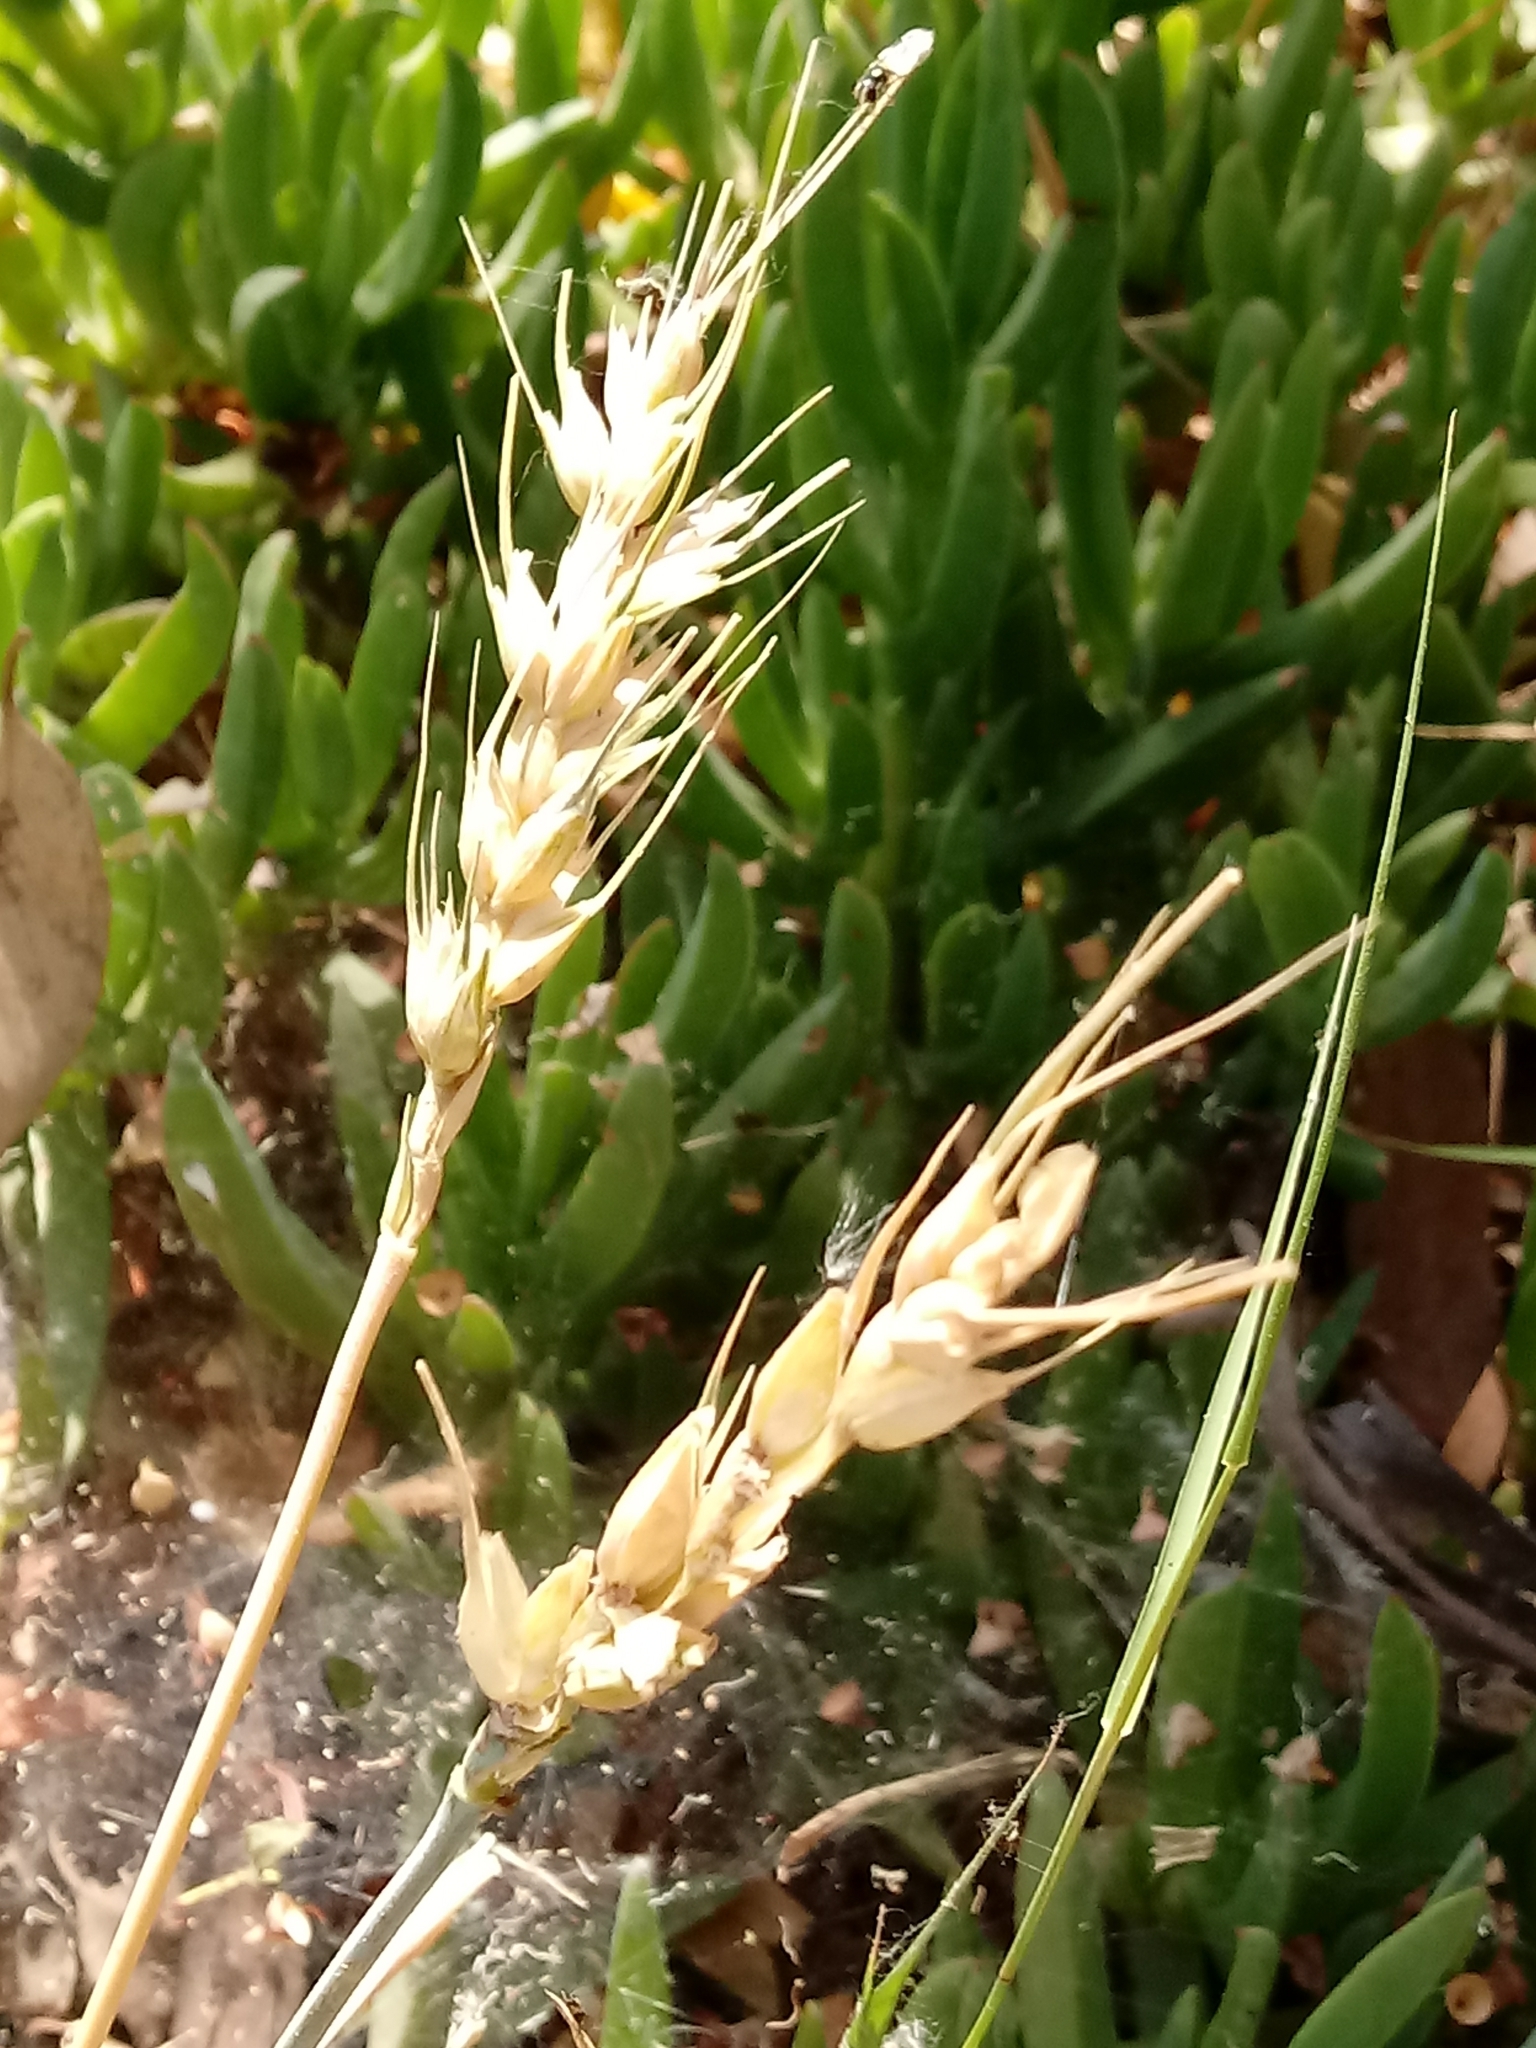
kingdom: Plantae
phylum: Tracheophyta
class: Liliopsida
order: Poales
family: Poaceae
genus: Triticum
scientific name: Triticum aestivum
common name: Common wheat
